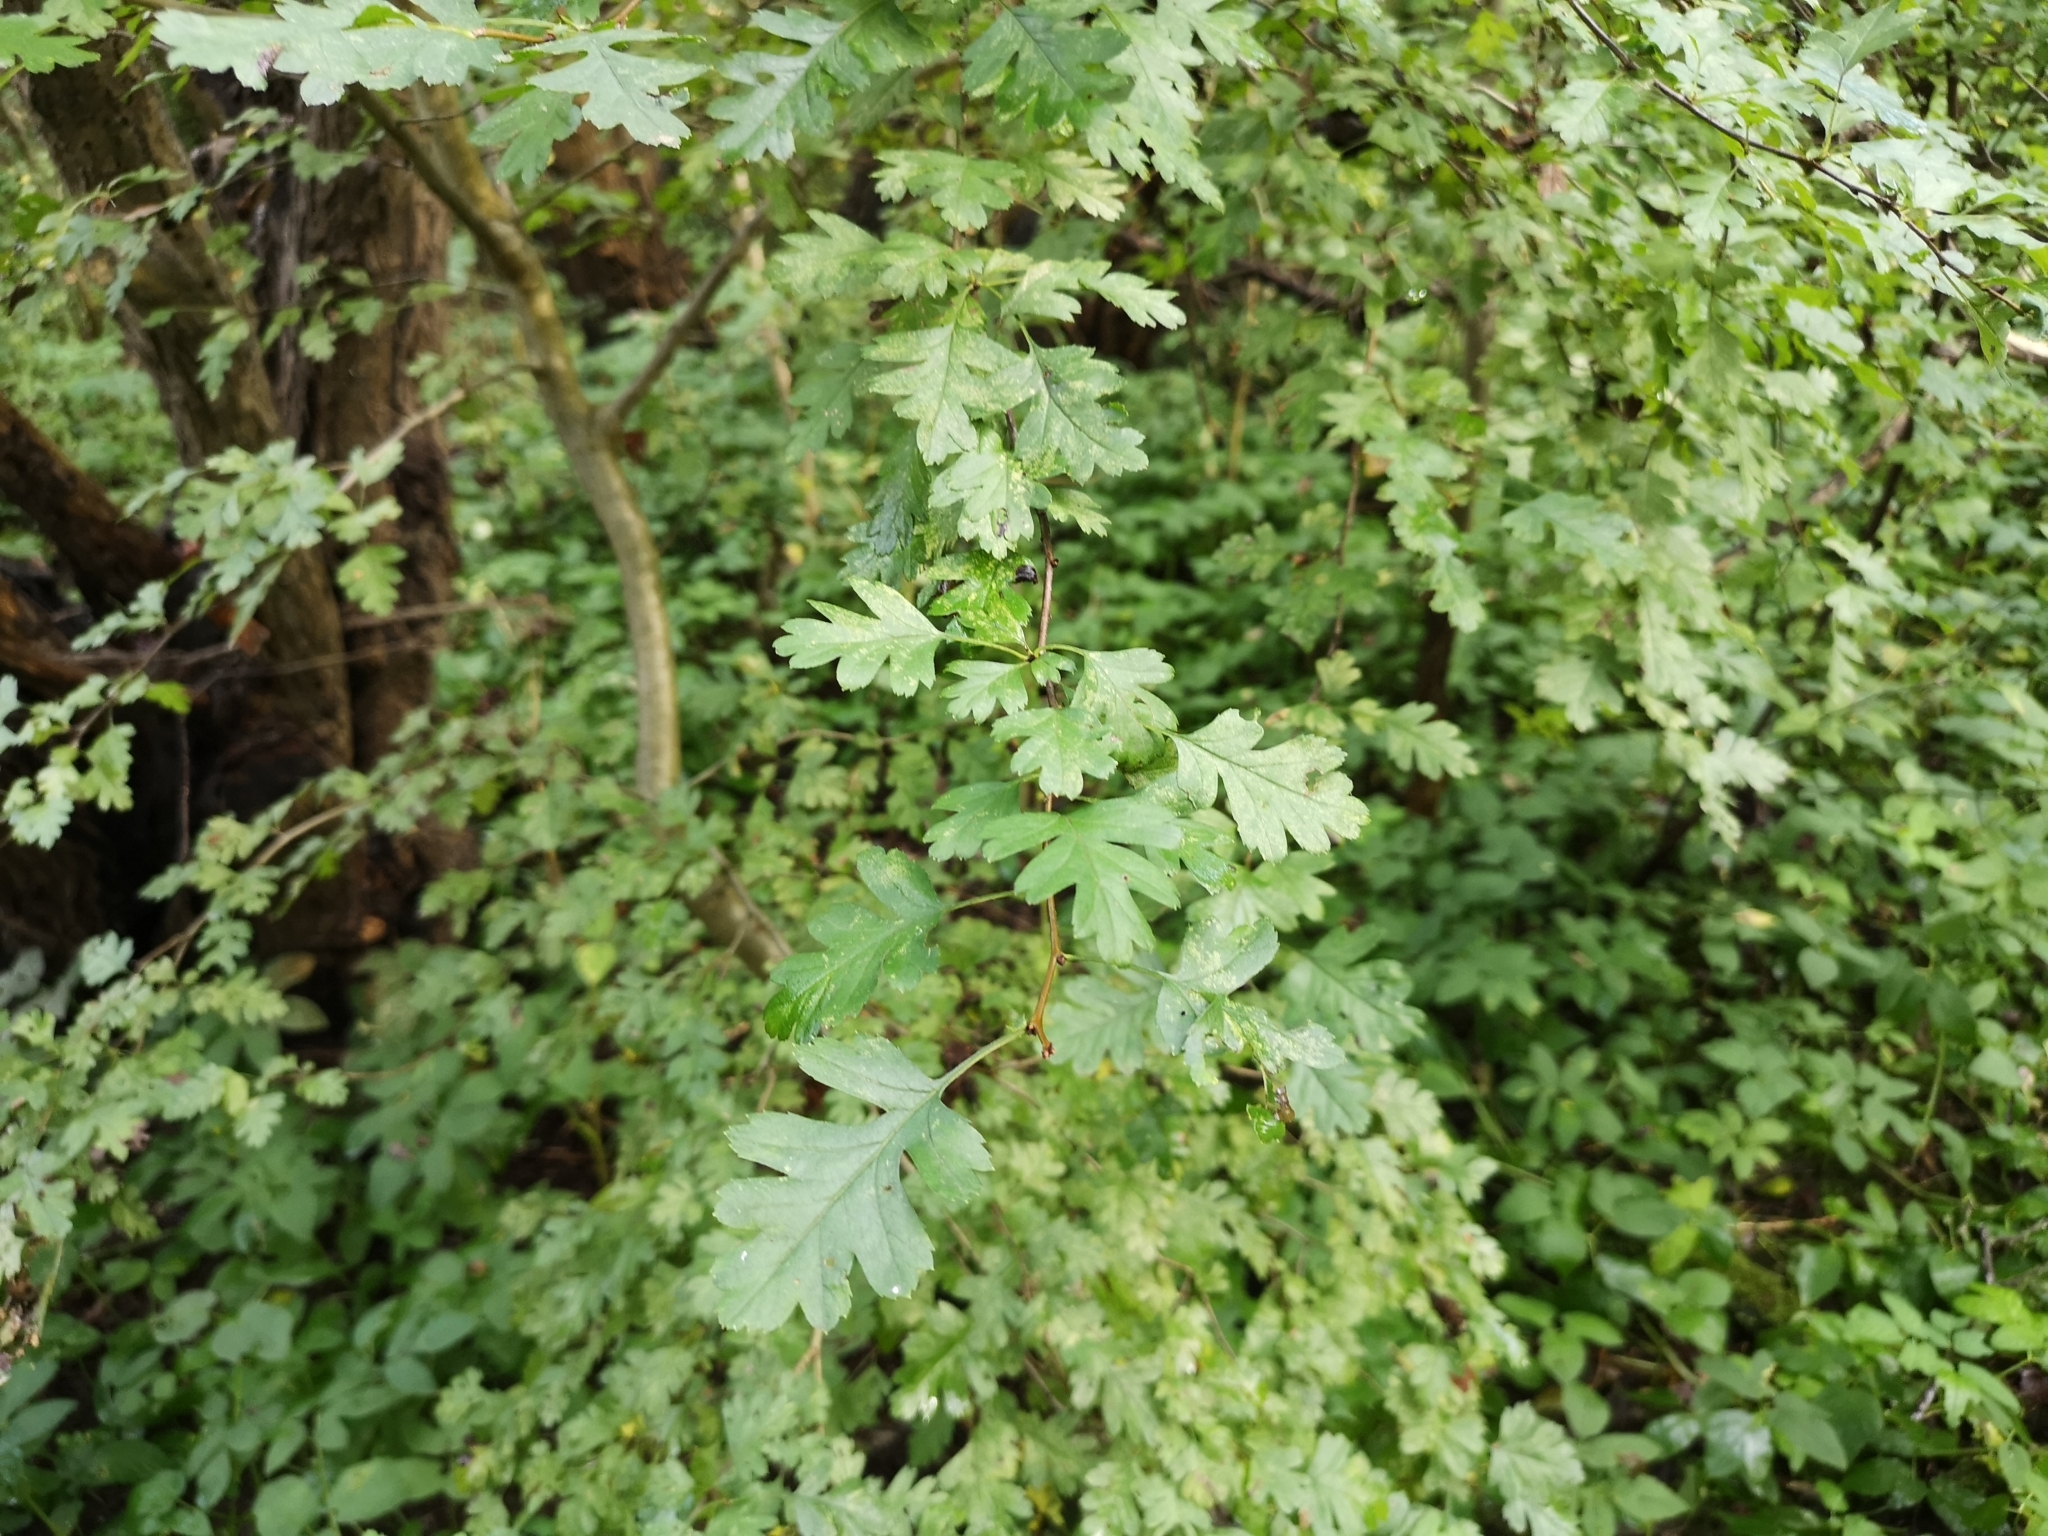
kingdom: Plantae
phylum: Tracheophyta
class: Magnoliopsida
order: Rosales
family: Rosaceae
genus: Crataegus
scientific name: Crataegus monogyna
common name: Hawthorn
